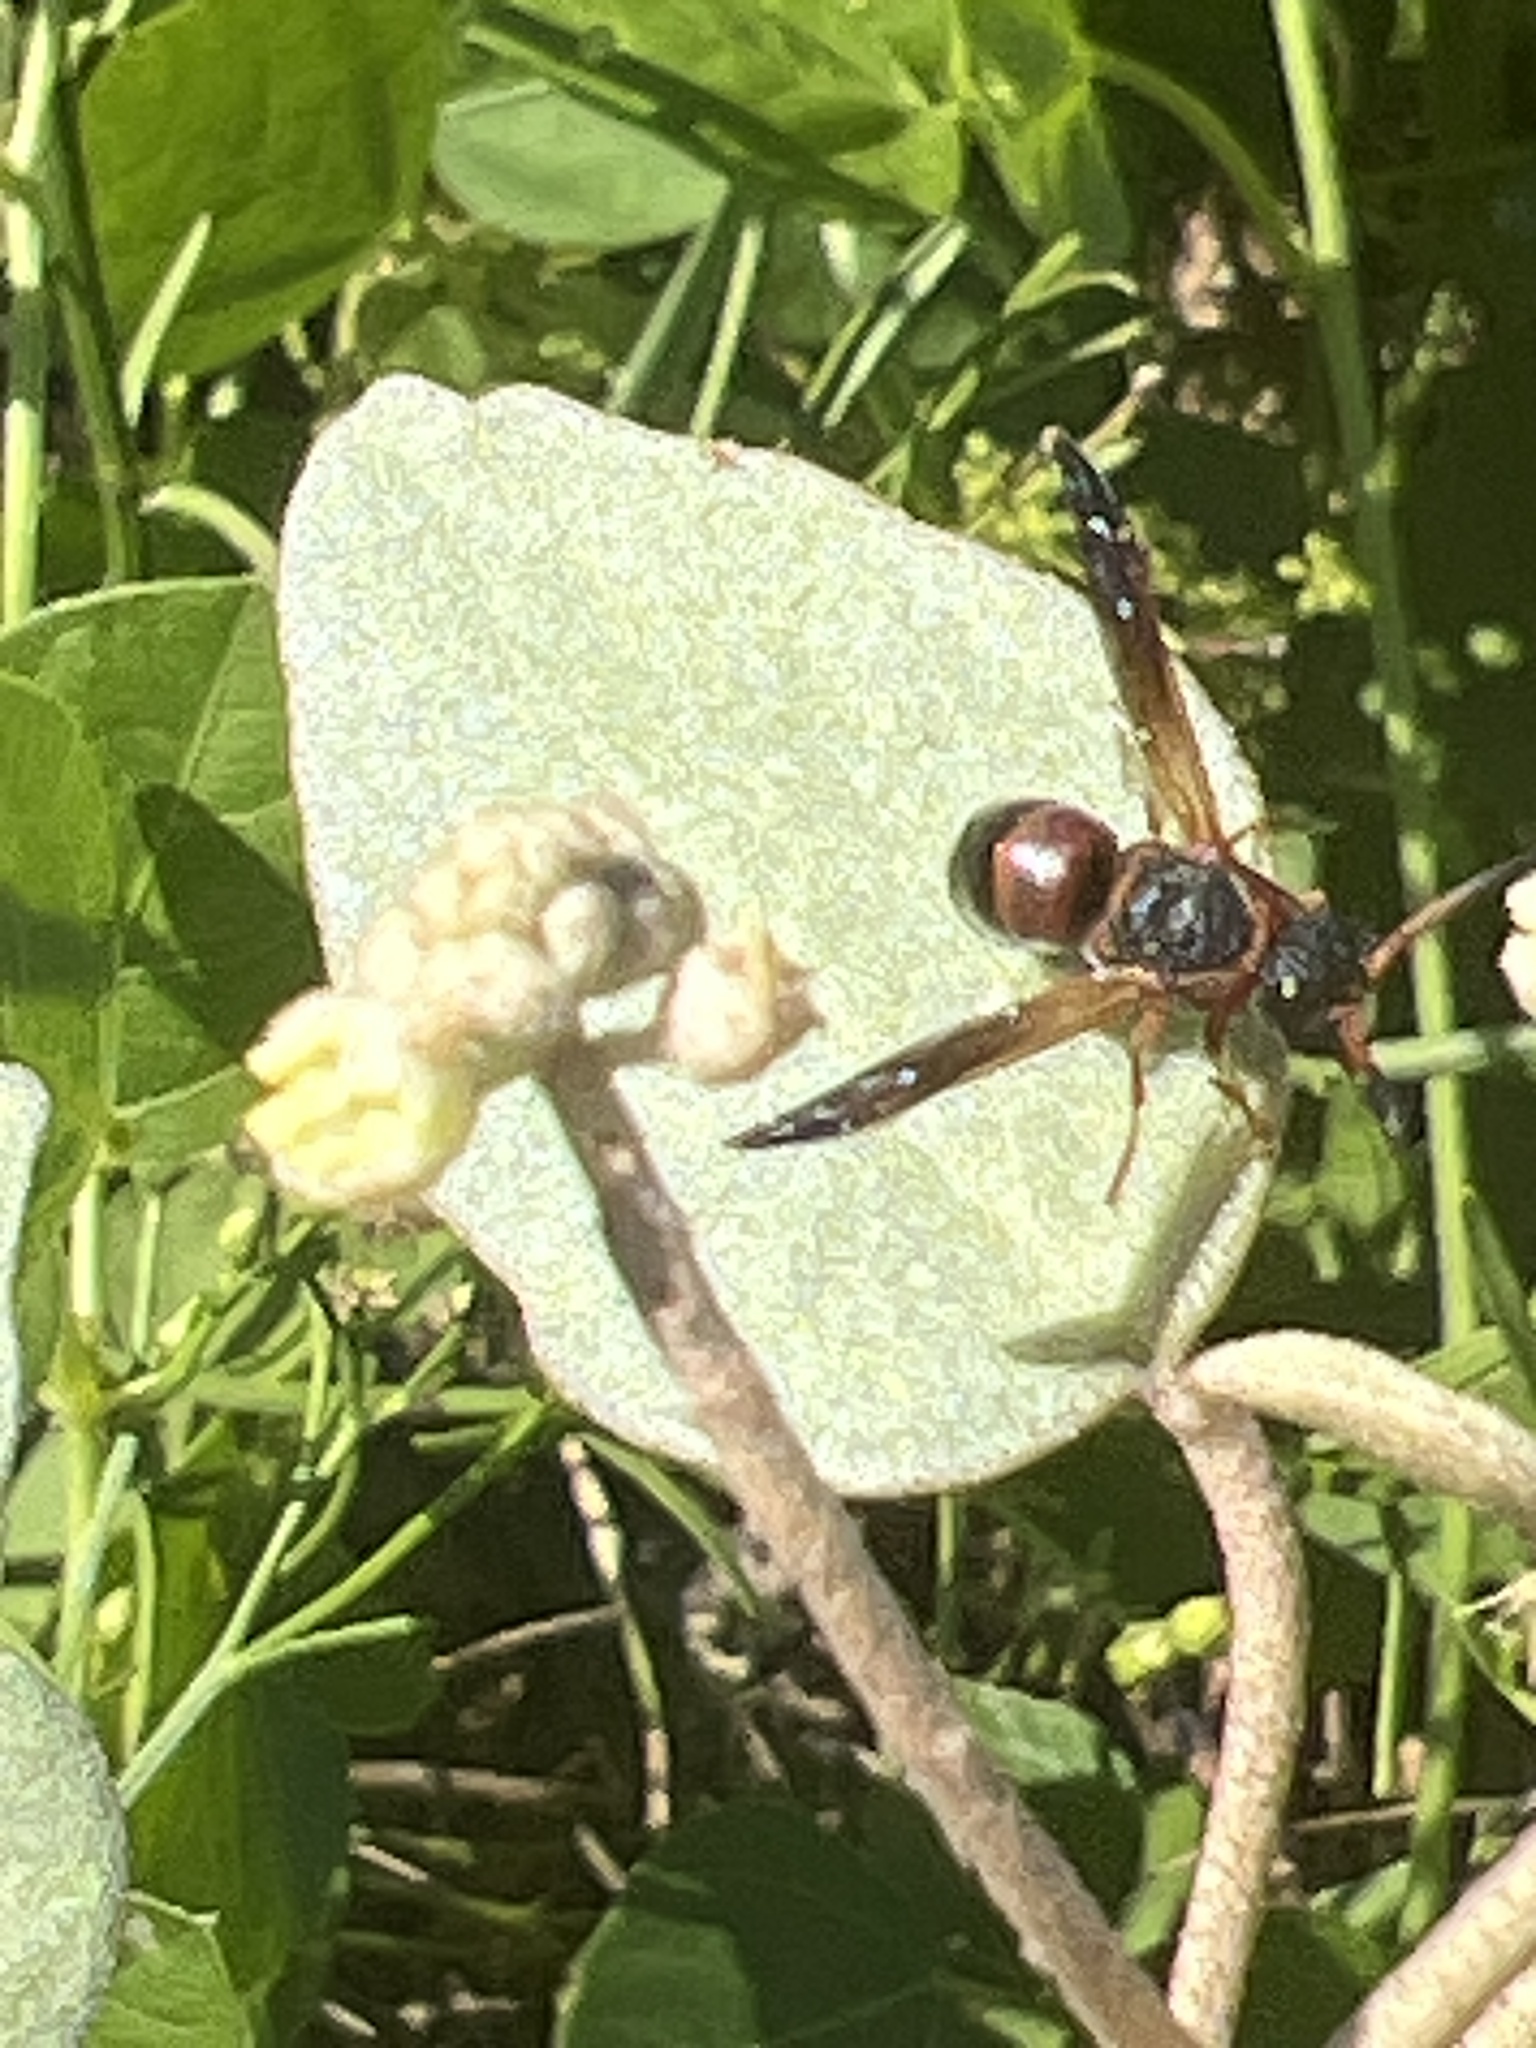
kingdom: Animalia
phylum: Arthropoda
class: Insecta
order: Hymenoptera
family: Eumenidae
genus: Pachodynerus
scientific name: Pachodynerus erynnis
